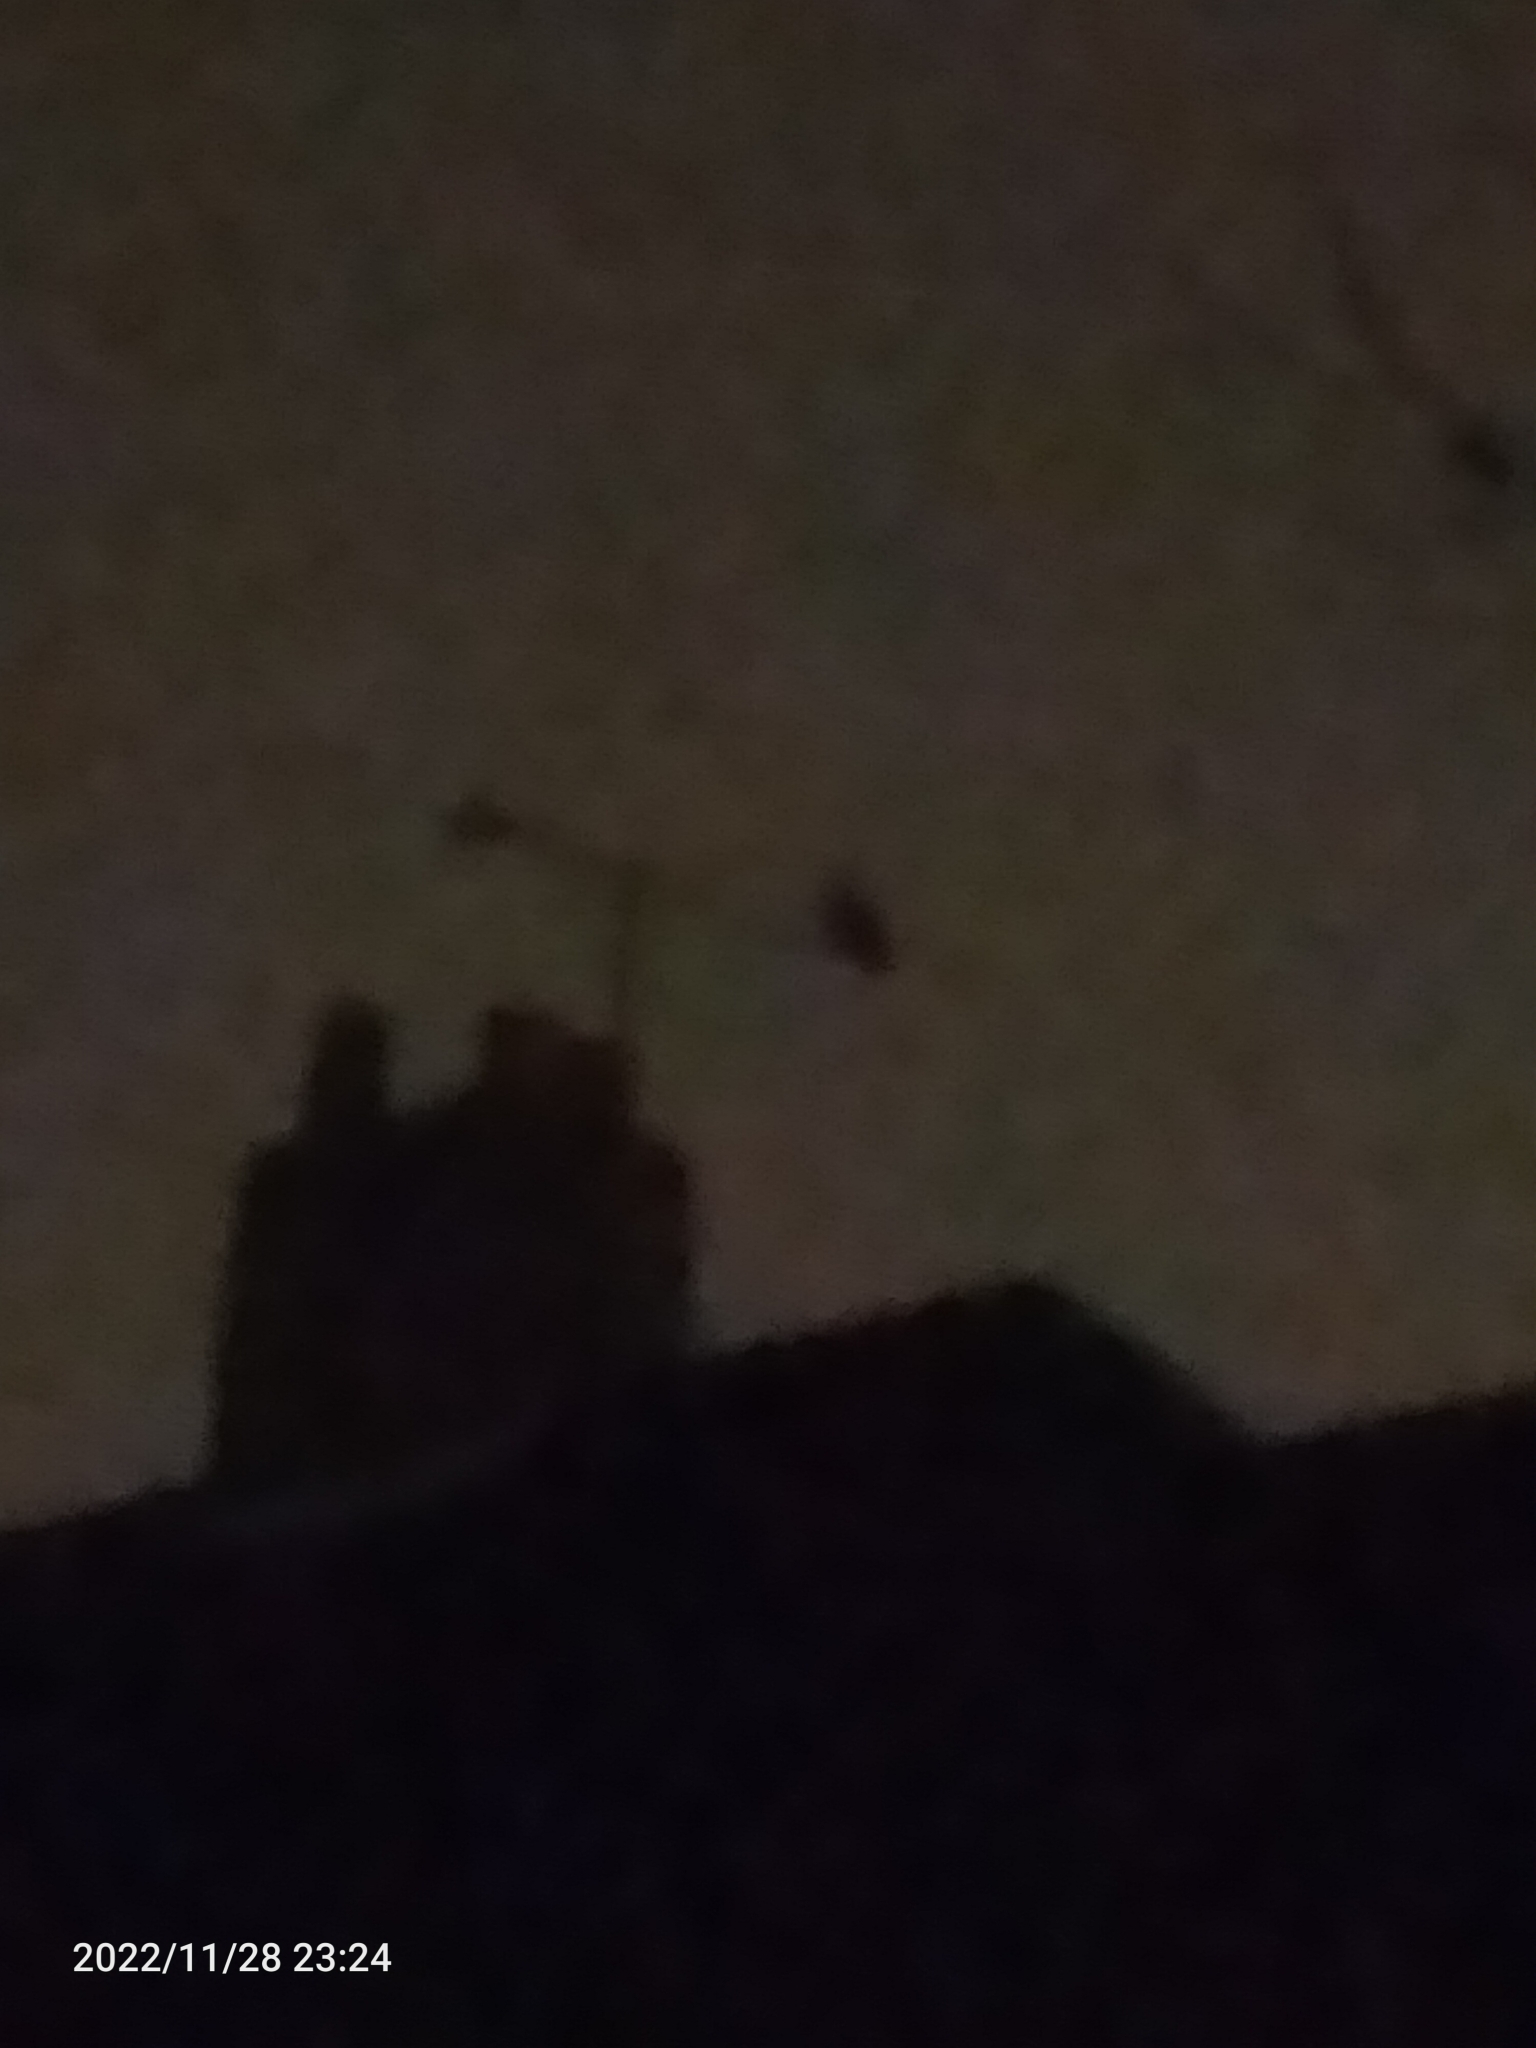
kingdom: Animalia
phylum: Chordata
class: Aves
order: Strigiformes
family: Strigidae
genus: Strix
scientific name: Strix aluco
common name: Tawny owl
